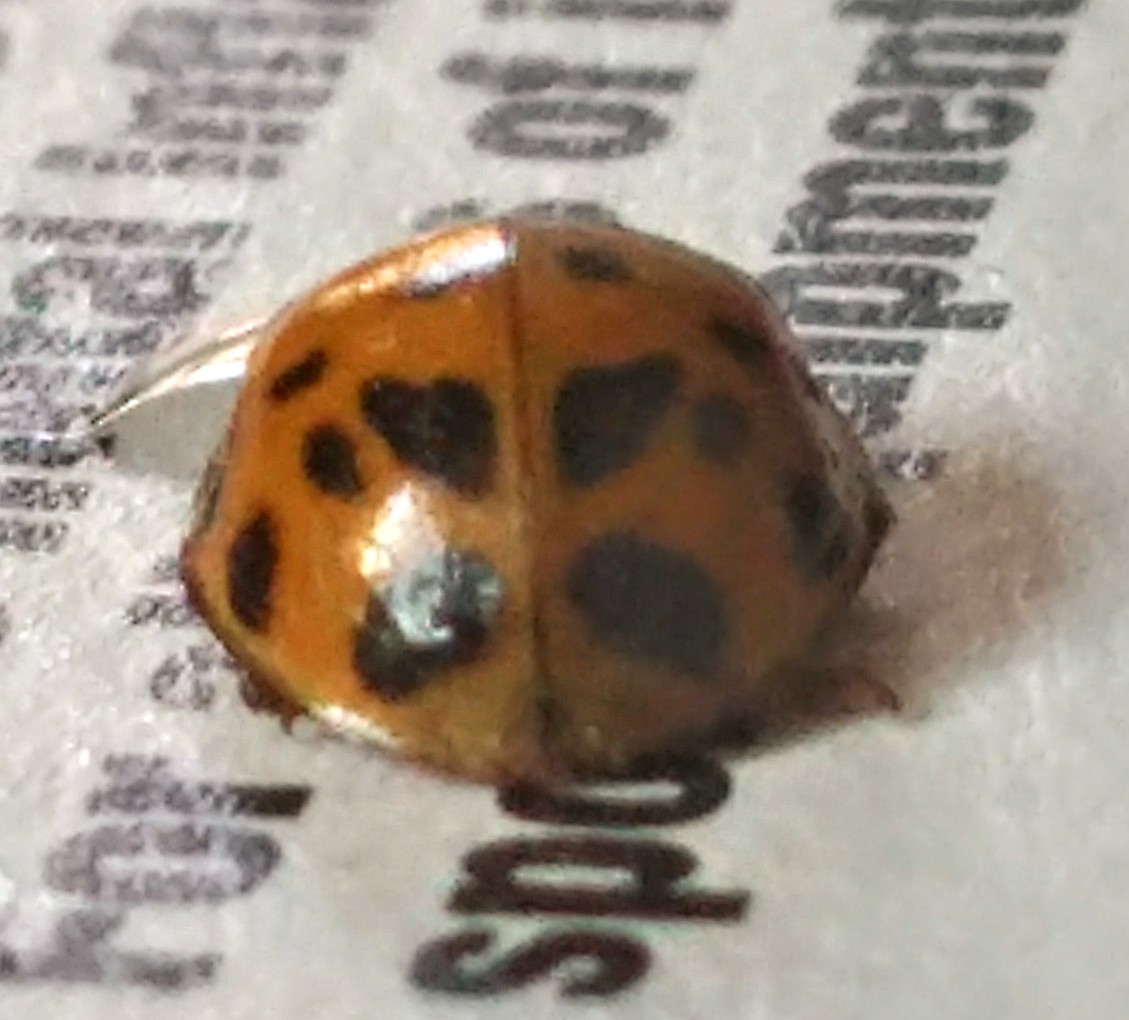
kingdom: Animalia
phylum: Arthropoda
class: Insecta
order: Coleoptera
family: Coccinellidae
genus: Harmonia
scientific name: Harmonia axyridis
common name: Harlequin ladybird
